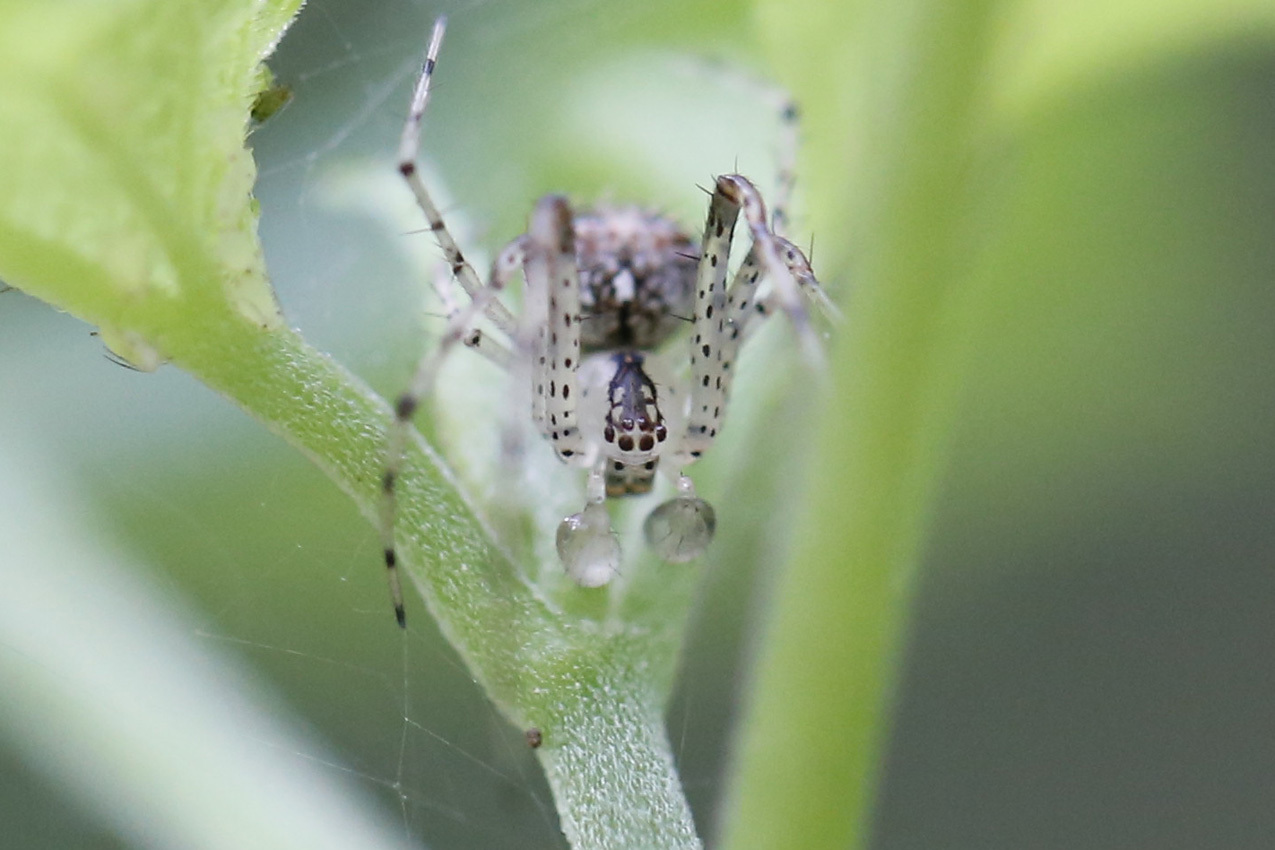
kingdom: Animalia
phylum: Arthropoda
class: Arachnida
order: Araneae
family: Mimetidae
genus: Mimetus
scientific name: Mimetus notius
